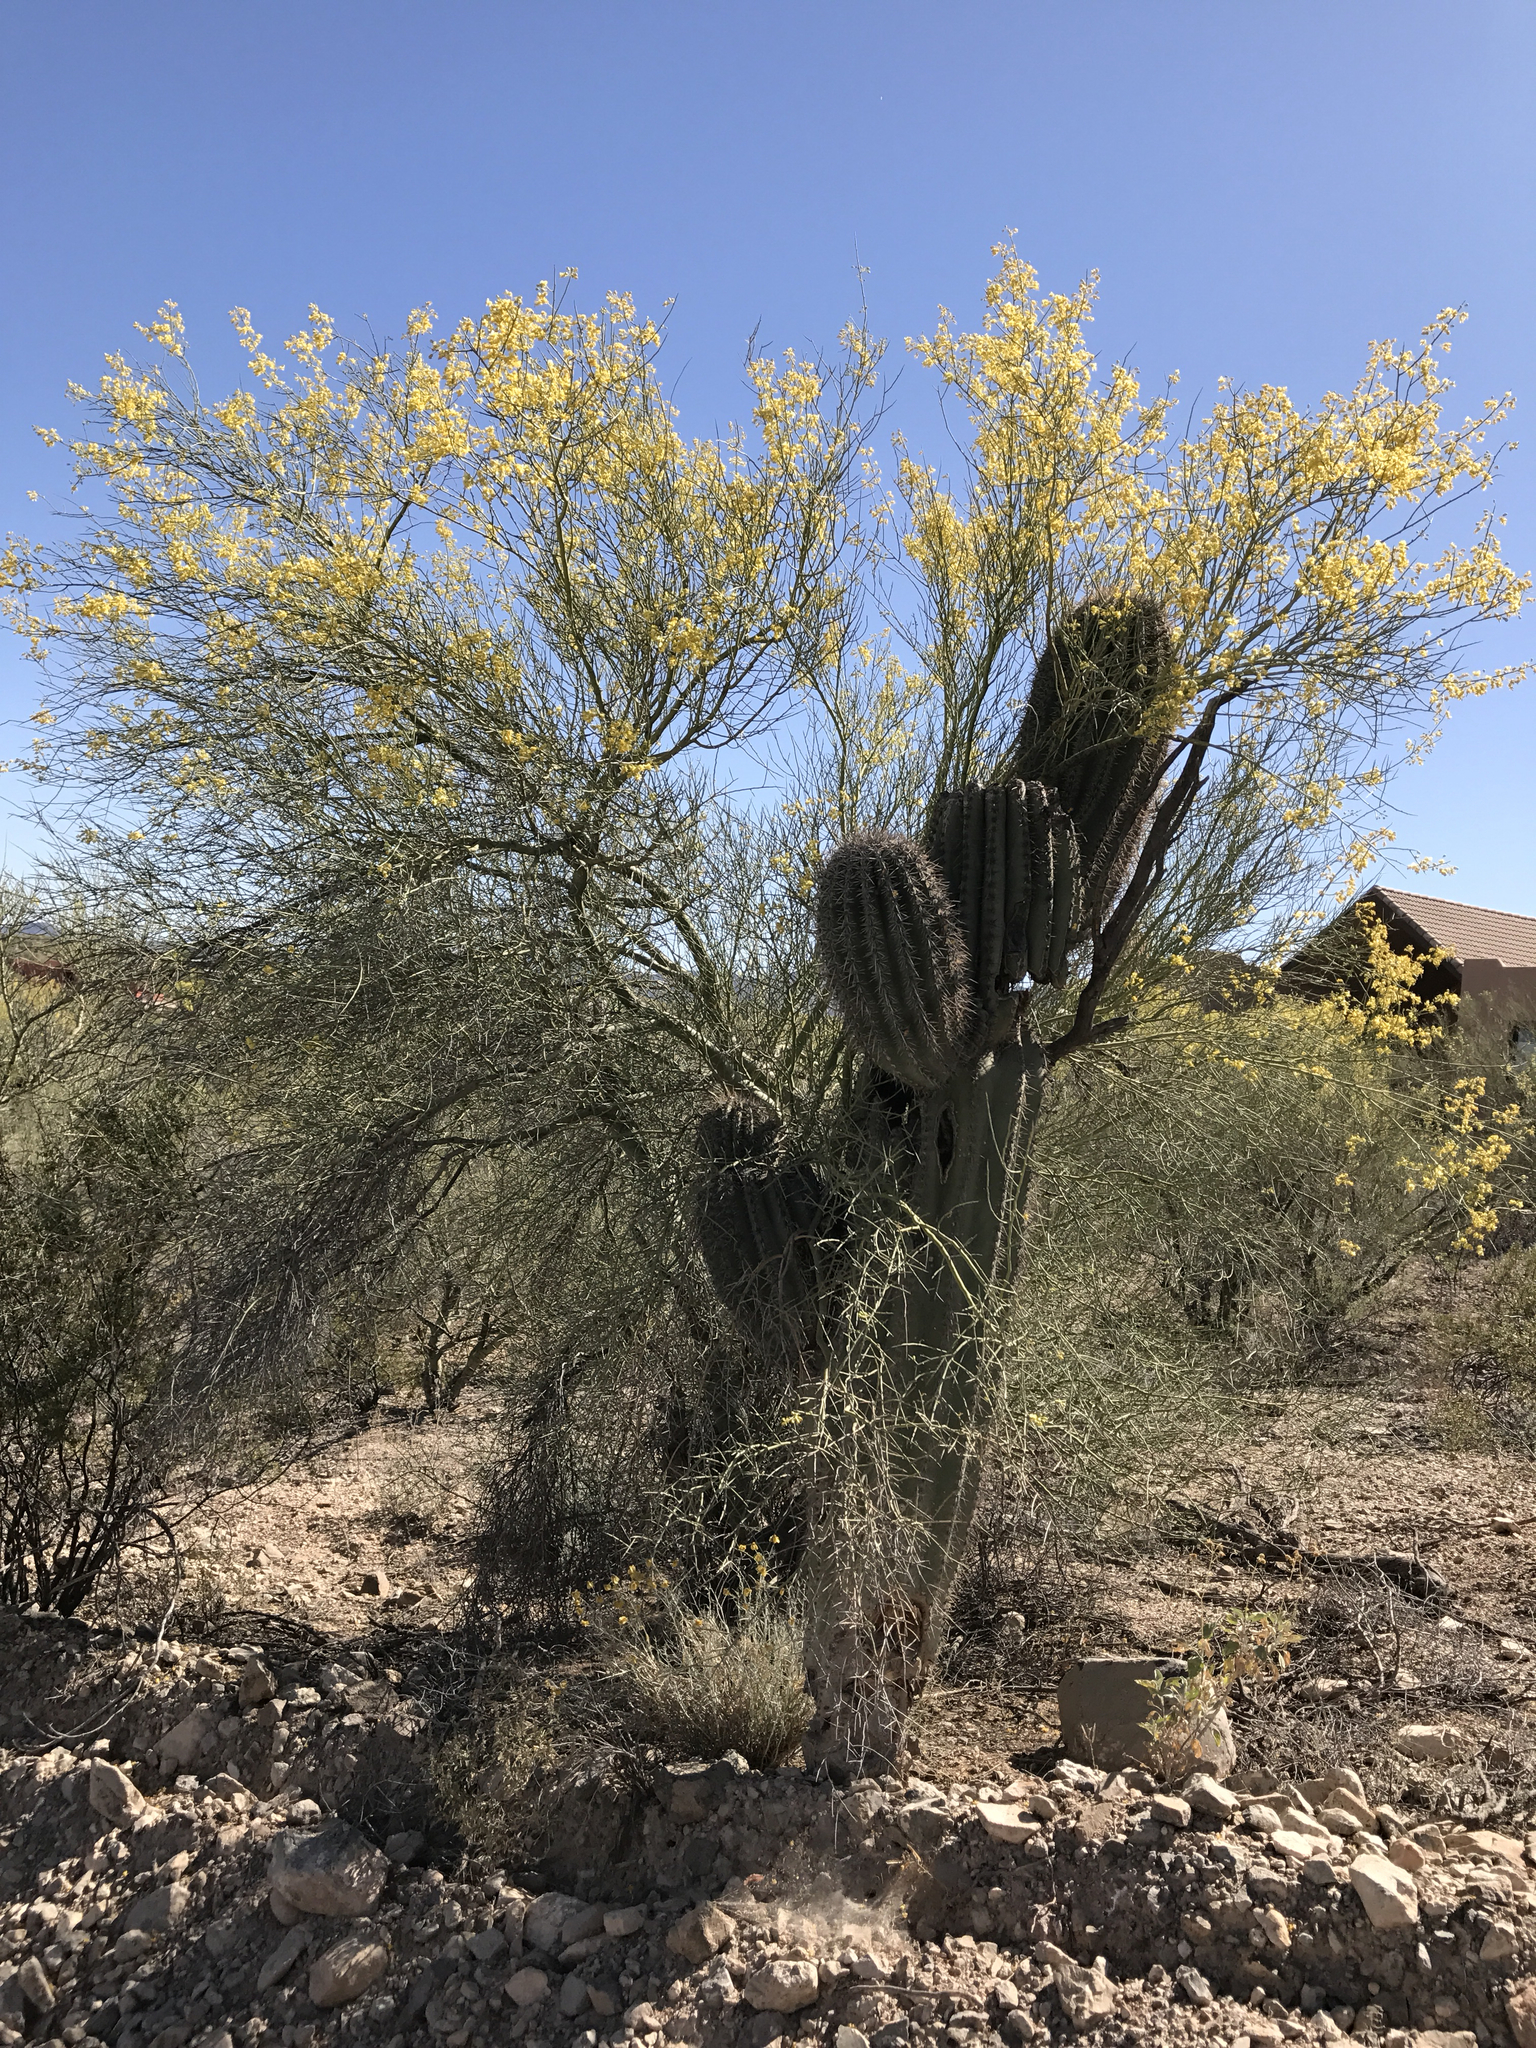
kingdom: Plantae
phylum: Tracheophyta
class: Magnoliopsida
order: Fabales
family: Fabaceae
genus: Parkinsonia
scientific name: Parkinsonia florida
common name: Blue paloverde
